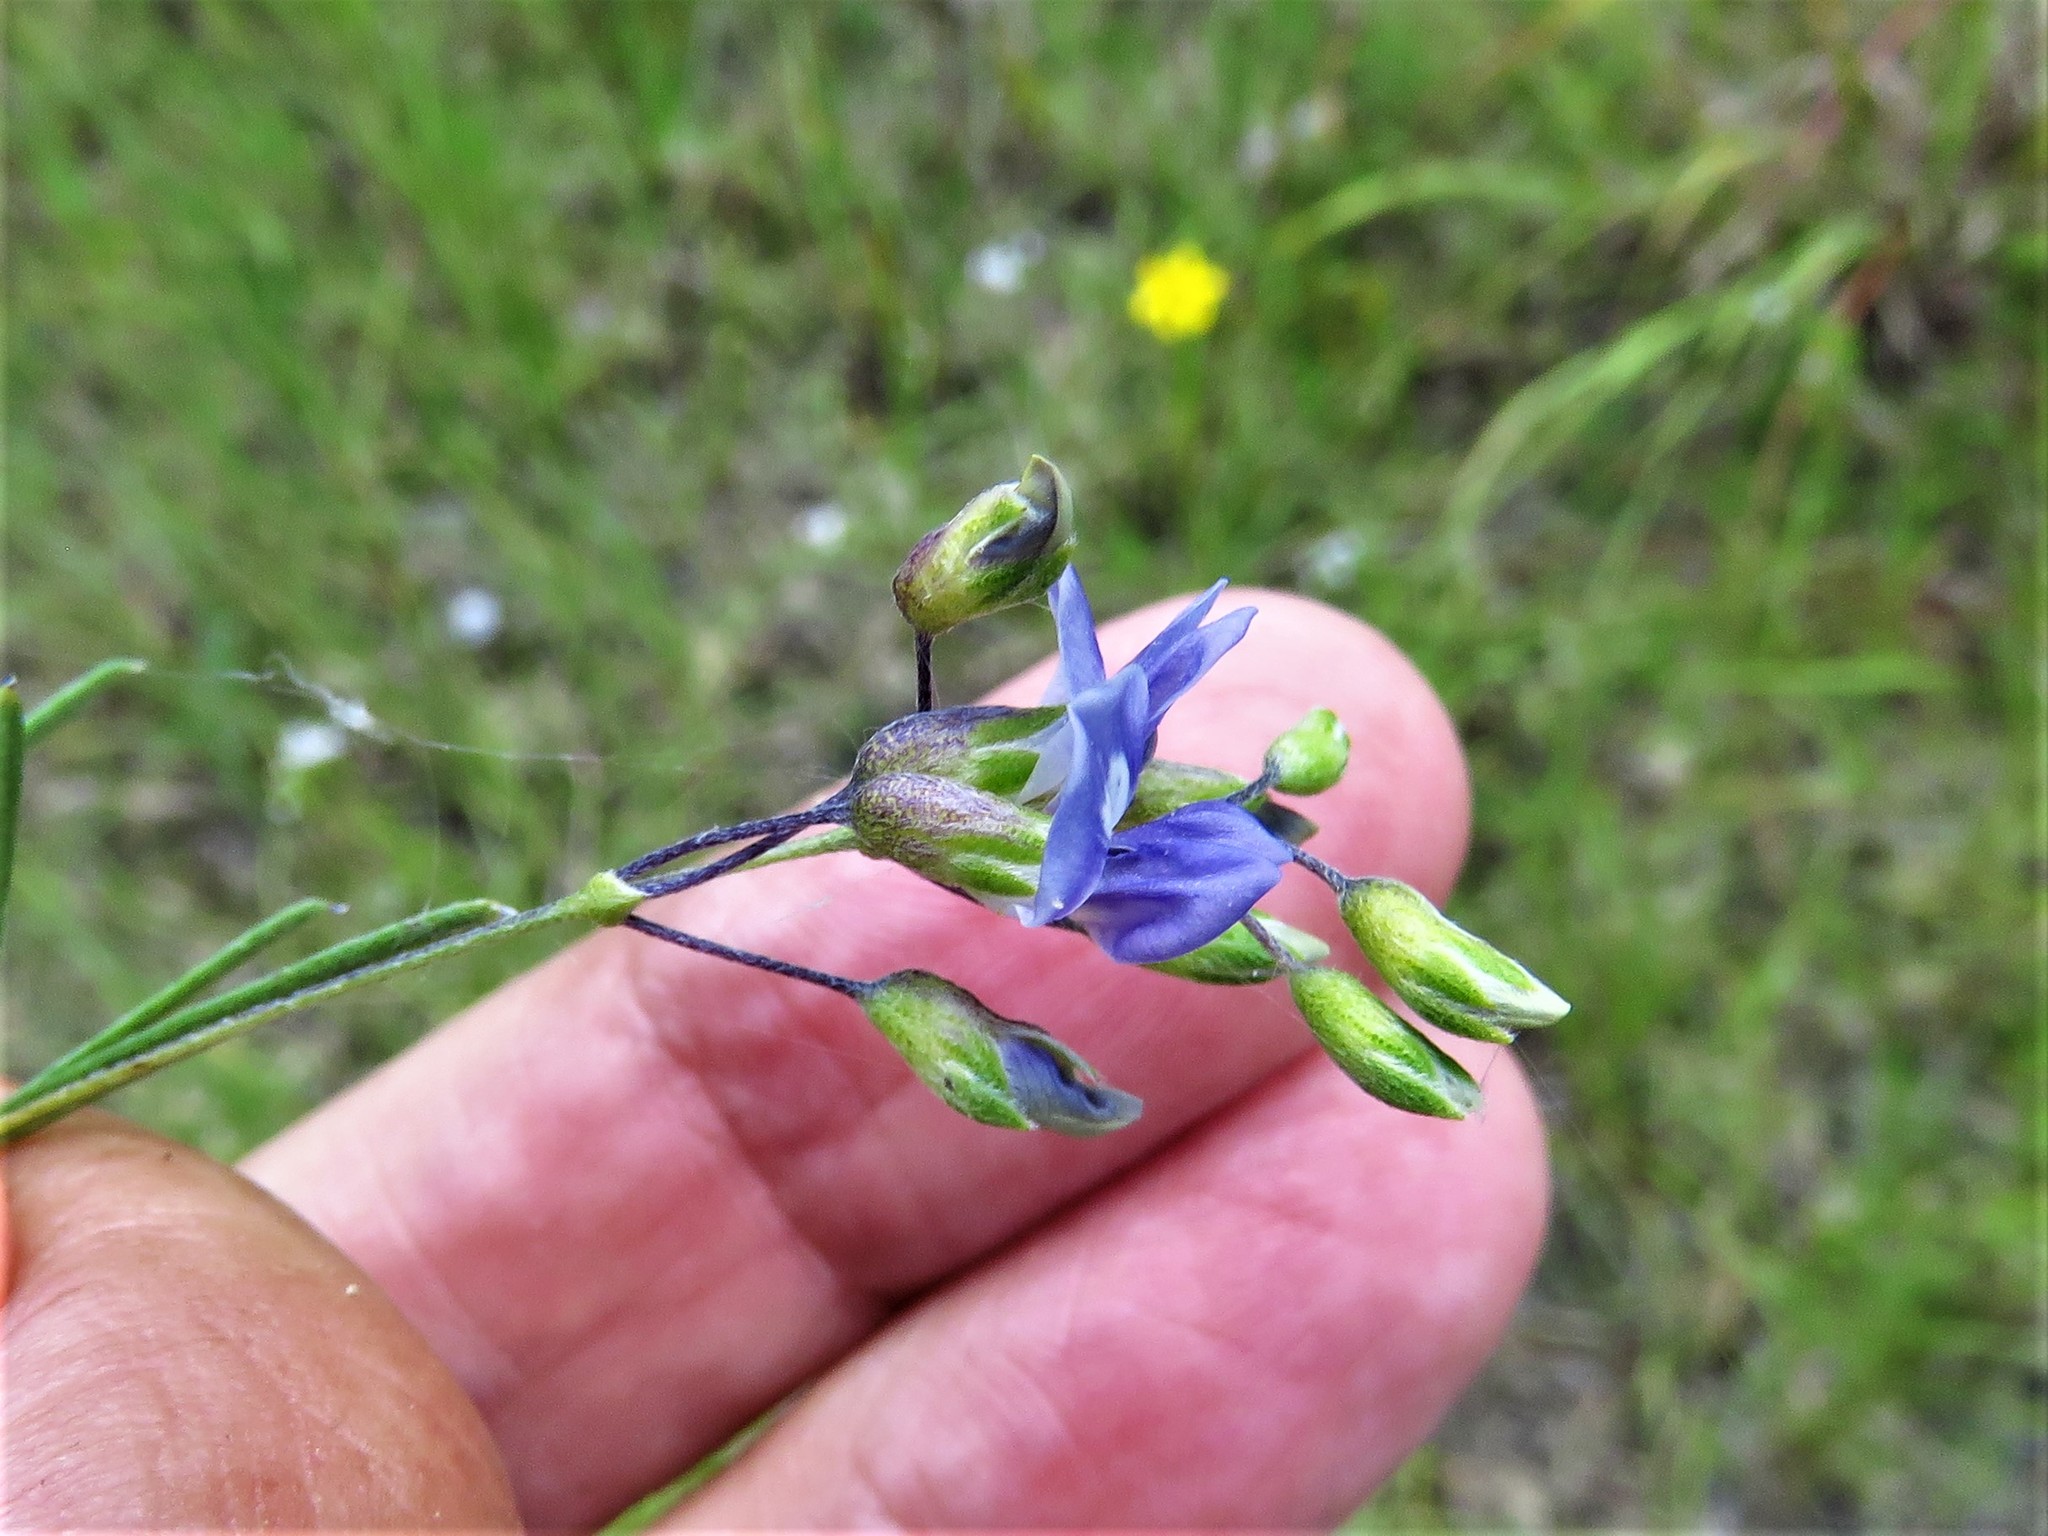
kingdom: Plantae
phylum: Tracheophyta
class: Magnoliopsida
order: Fabales
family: Fabaceae
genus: Pediomelum
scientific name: Pediomelum linearifolium
